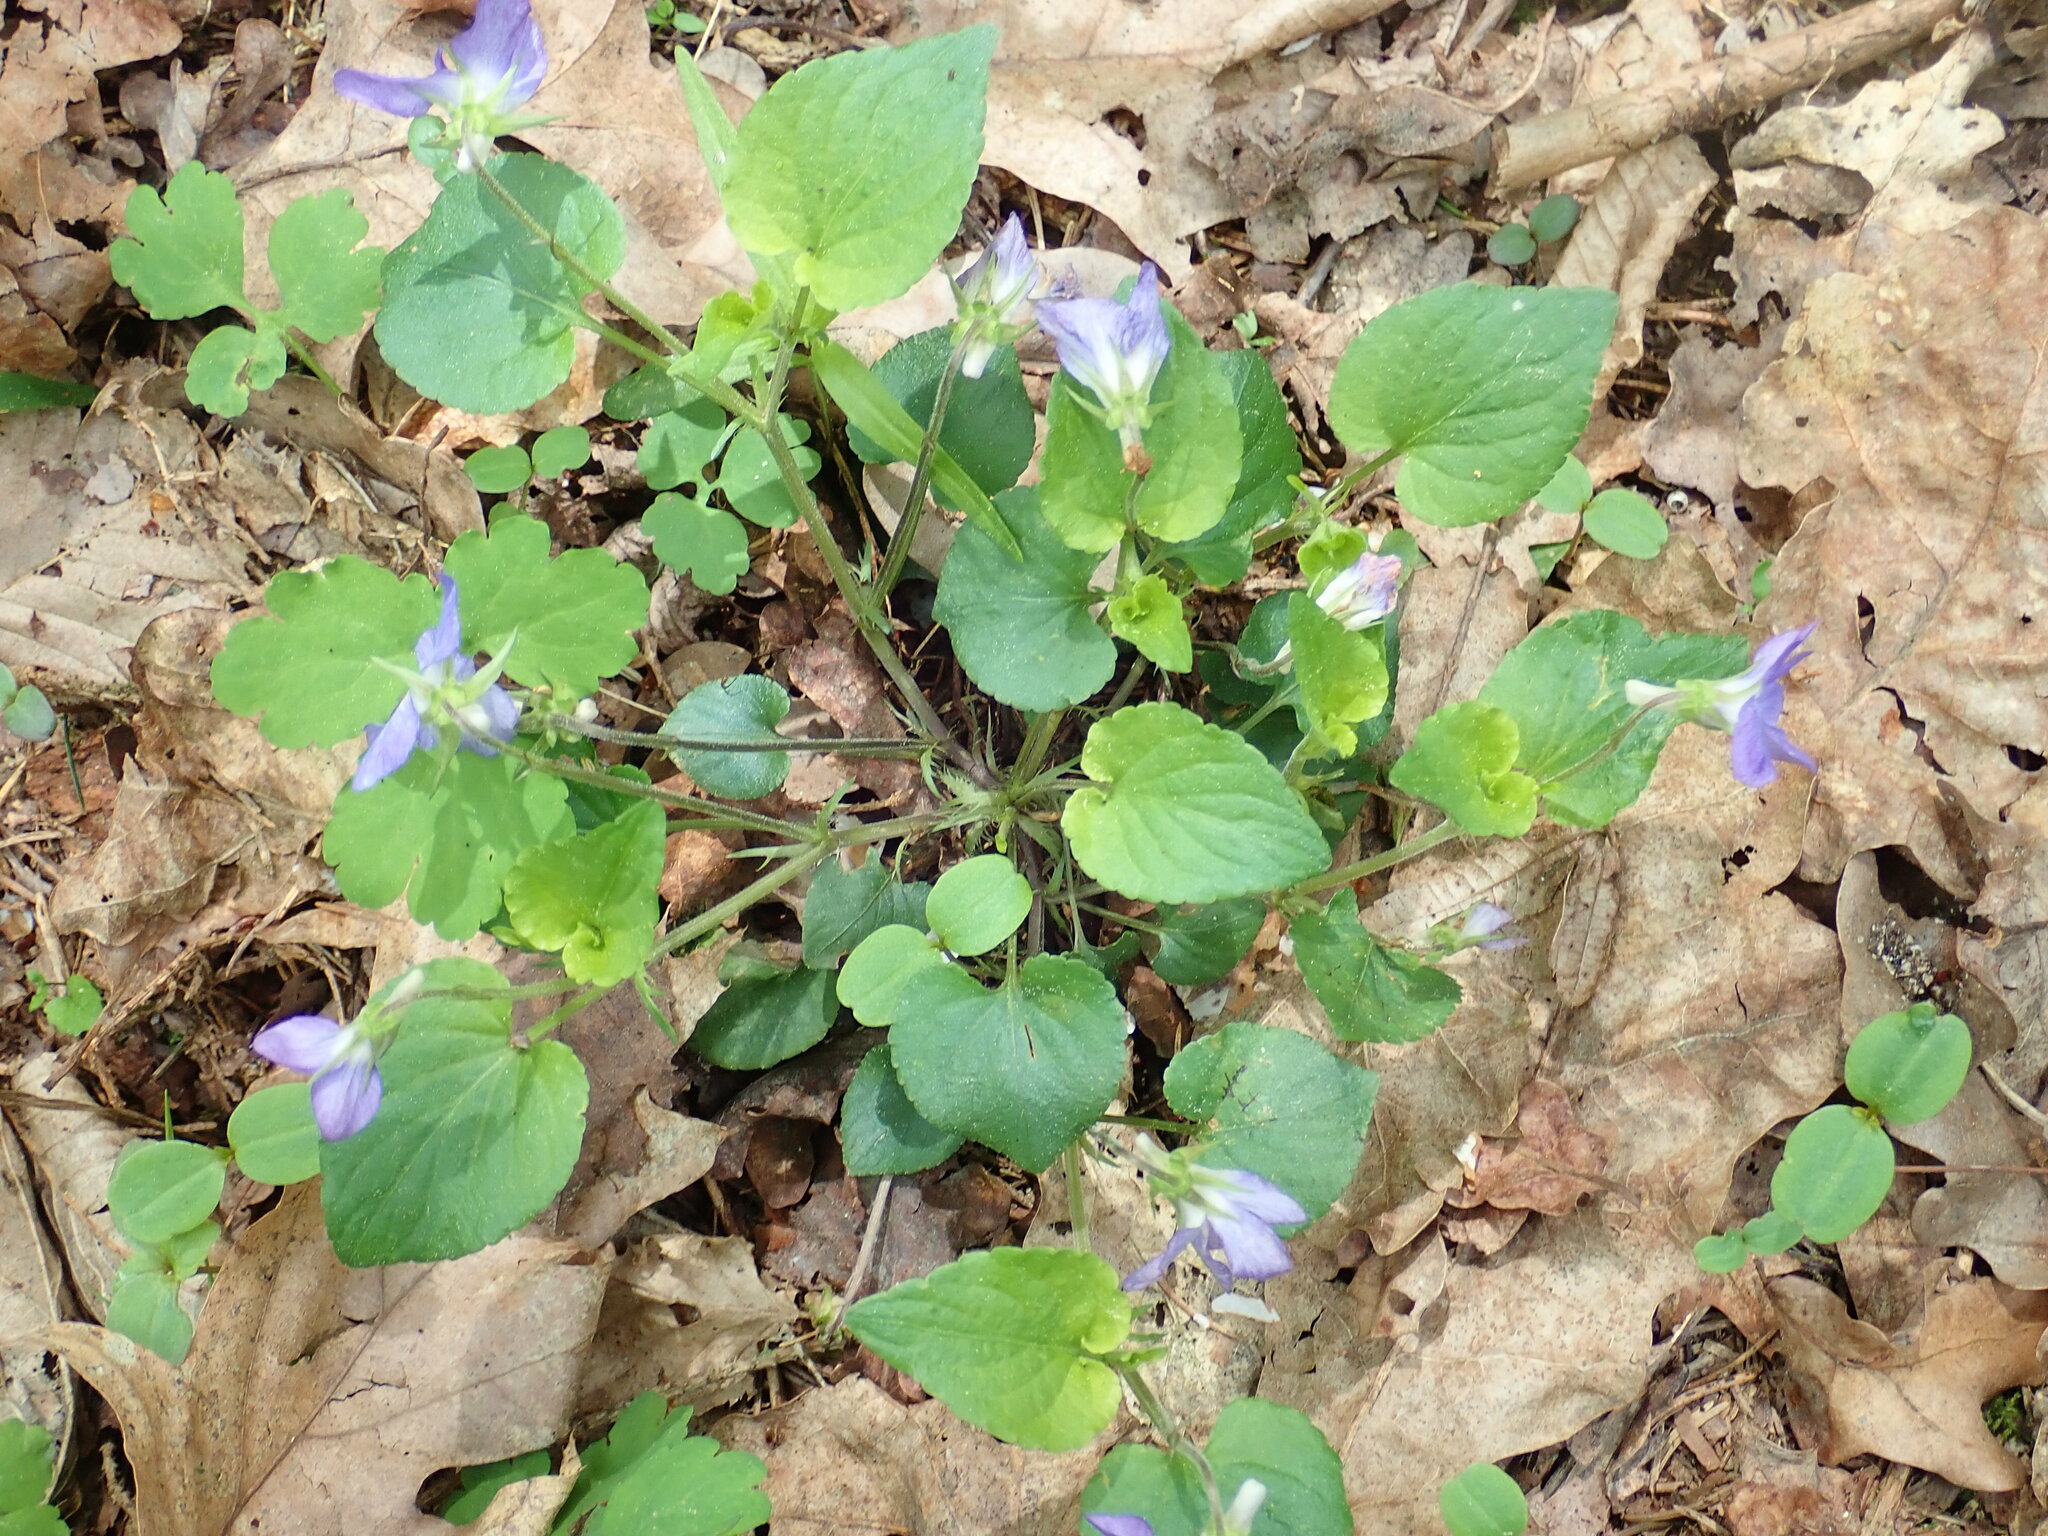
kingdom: Plantae
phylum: Tracheophyta
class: Magnoliopsida
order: Malpighiales
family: Violaceae
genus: Viola
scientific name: Viola riviniana
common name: Common dog-violet
